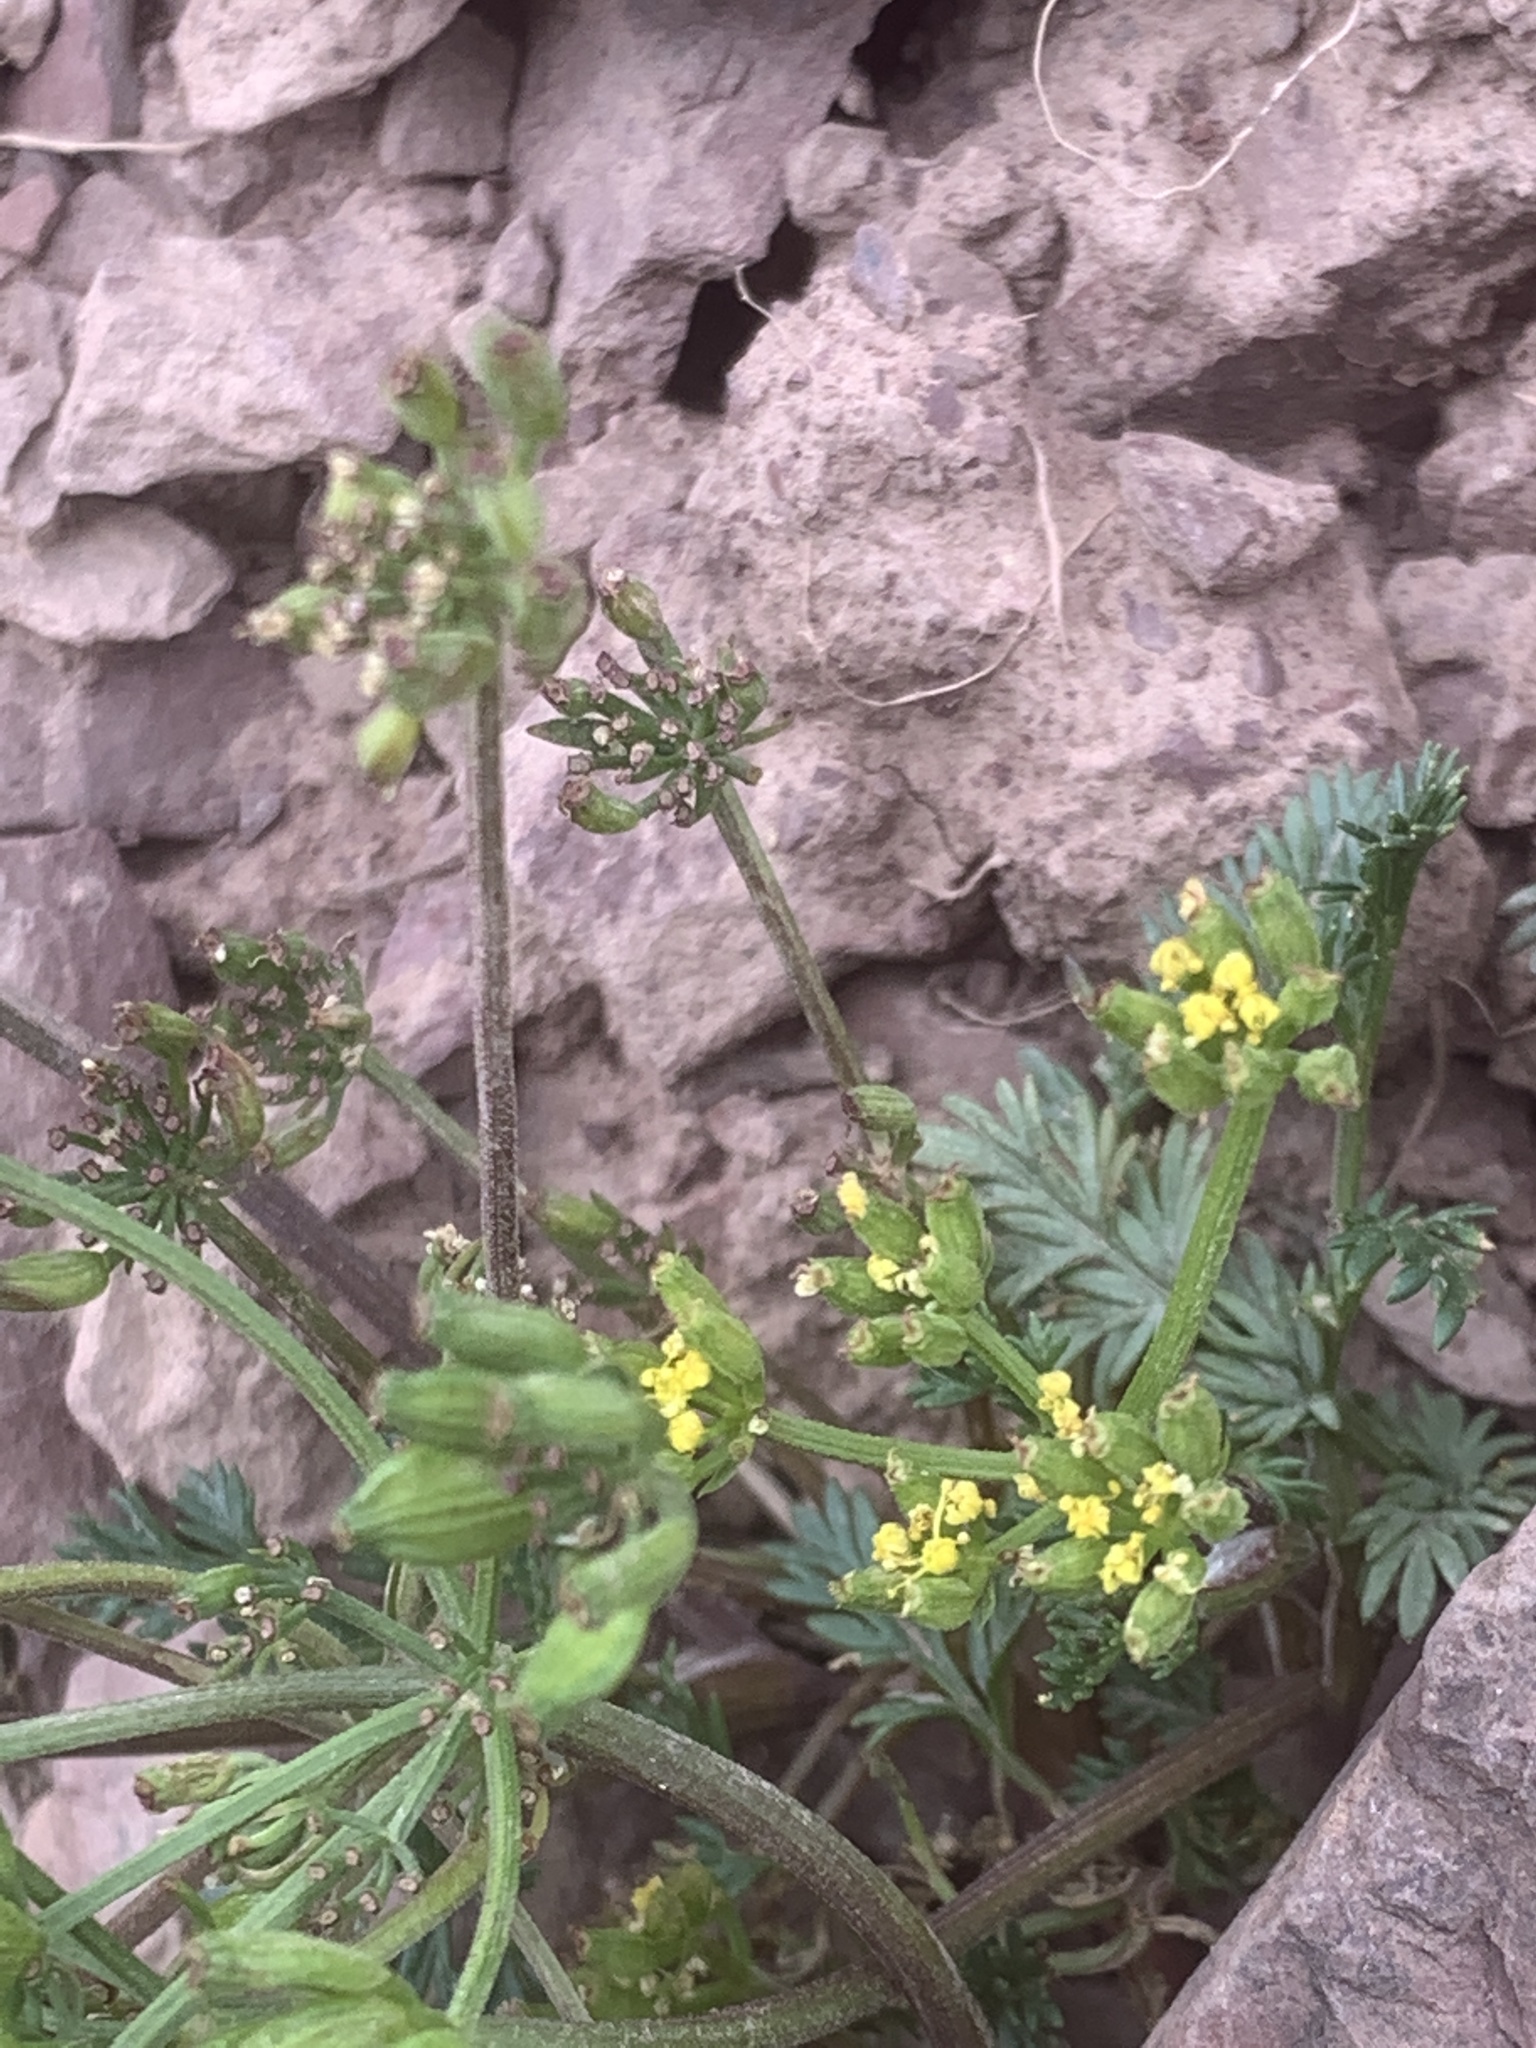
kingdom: Plantae
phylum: Tracheophyta
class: Magnoliopsida
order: Apiales
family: Apiaceae
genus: Lomatium
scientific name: Lomatium sandbergii
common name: Sandberg's biscuitroot
